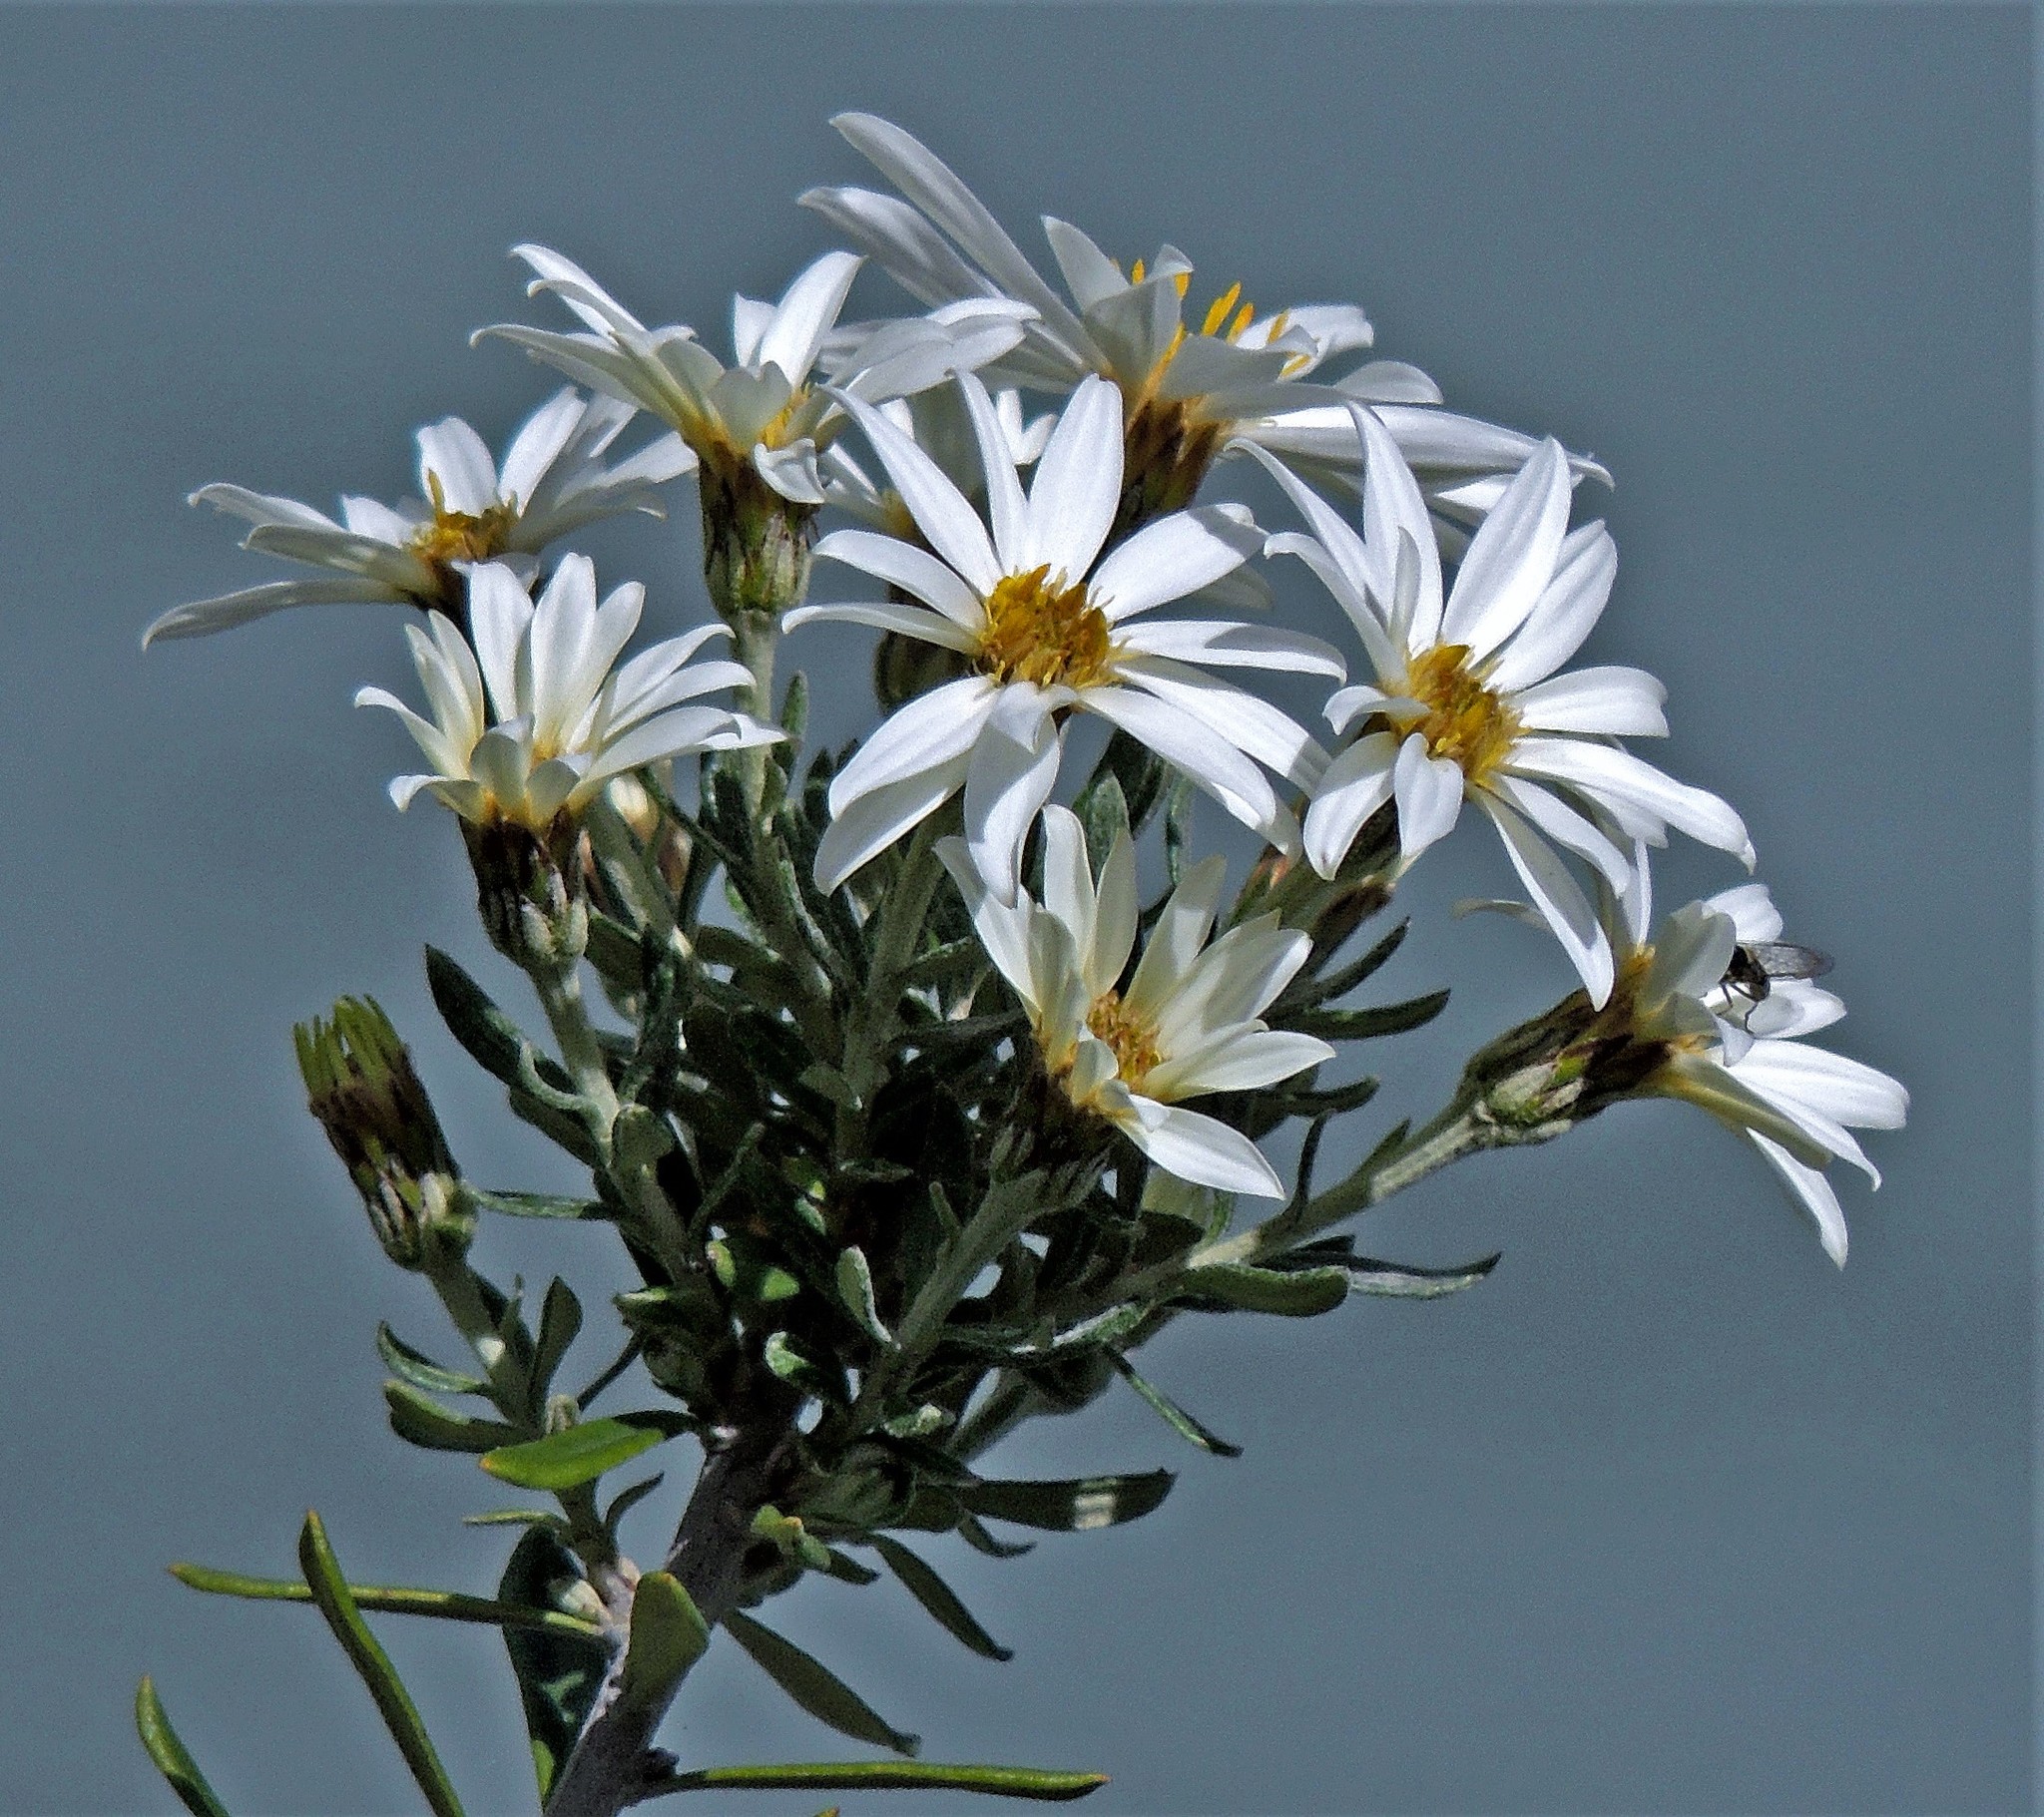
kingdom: Plantae
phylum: Tracheophyta
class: Magnoliopsida
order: Asterales
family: Asteraceae
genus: Chiliotrichum
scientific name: Chiliotrichum diffusum
